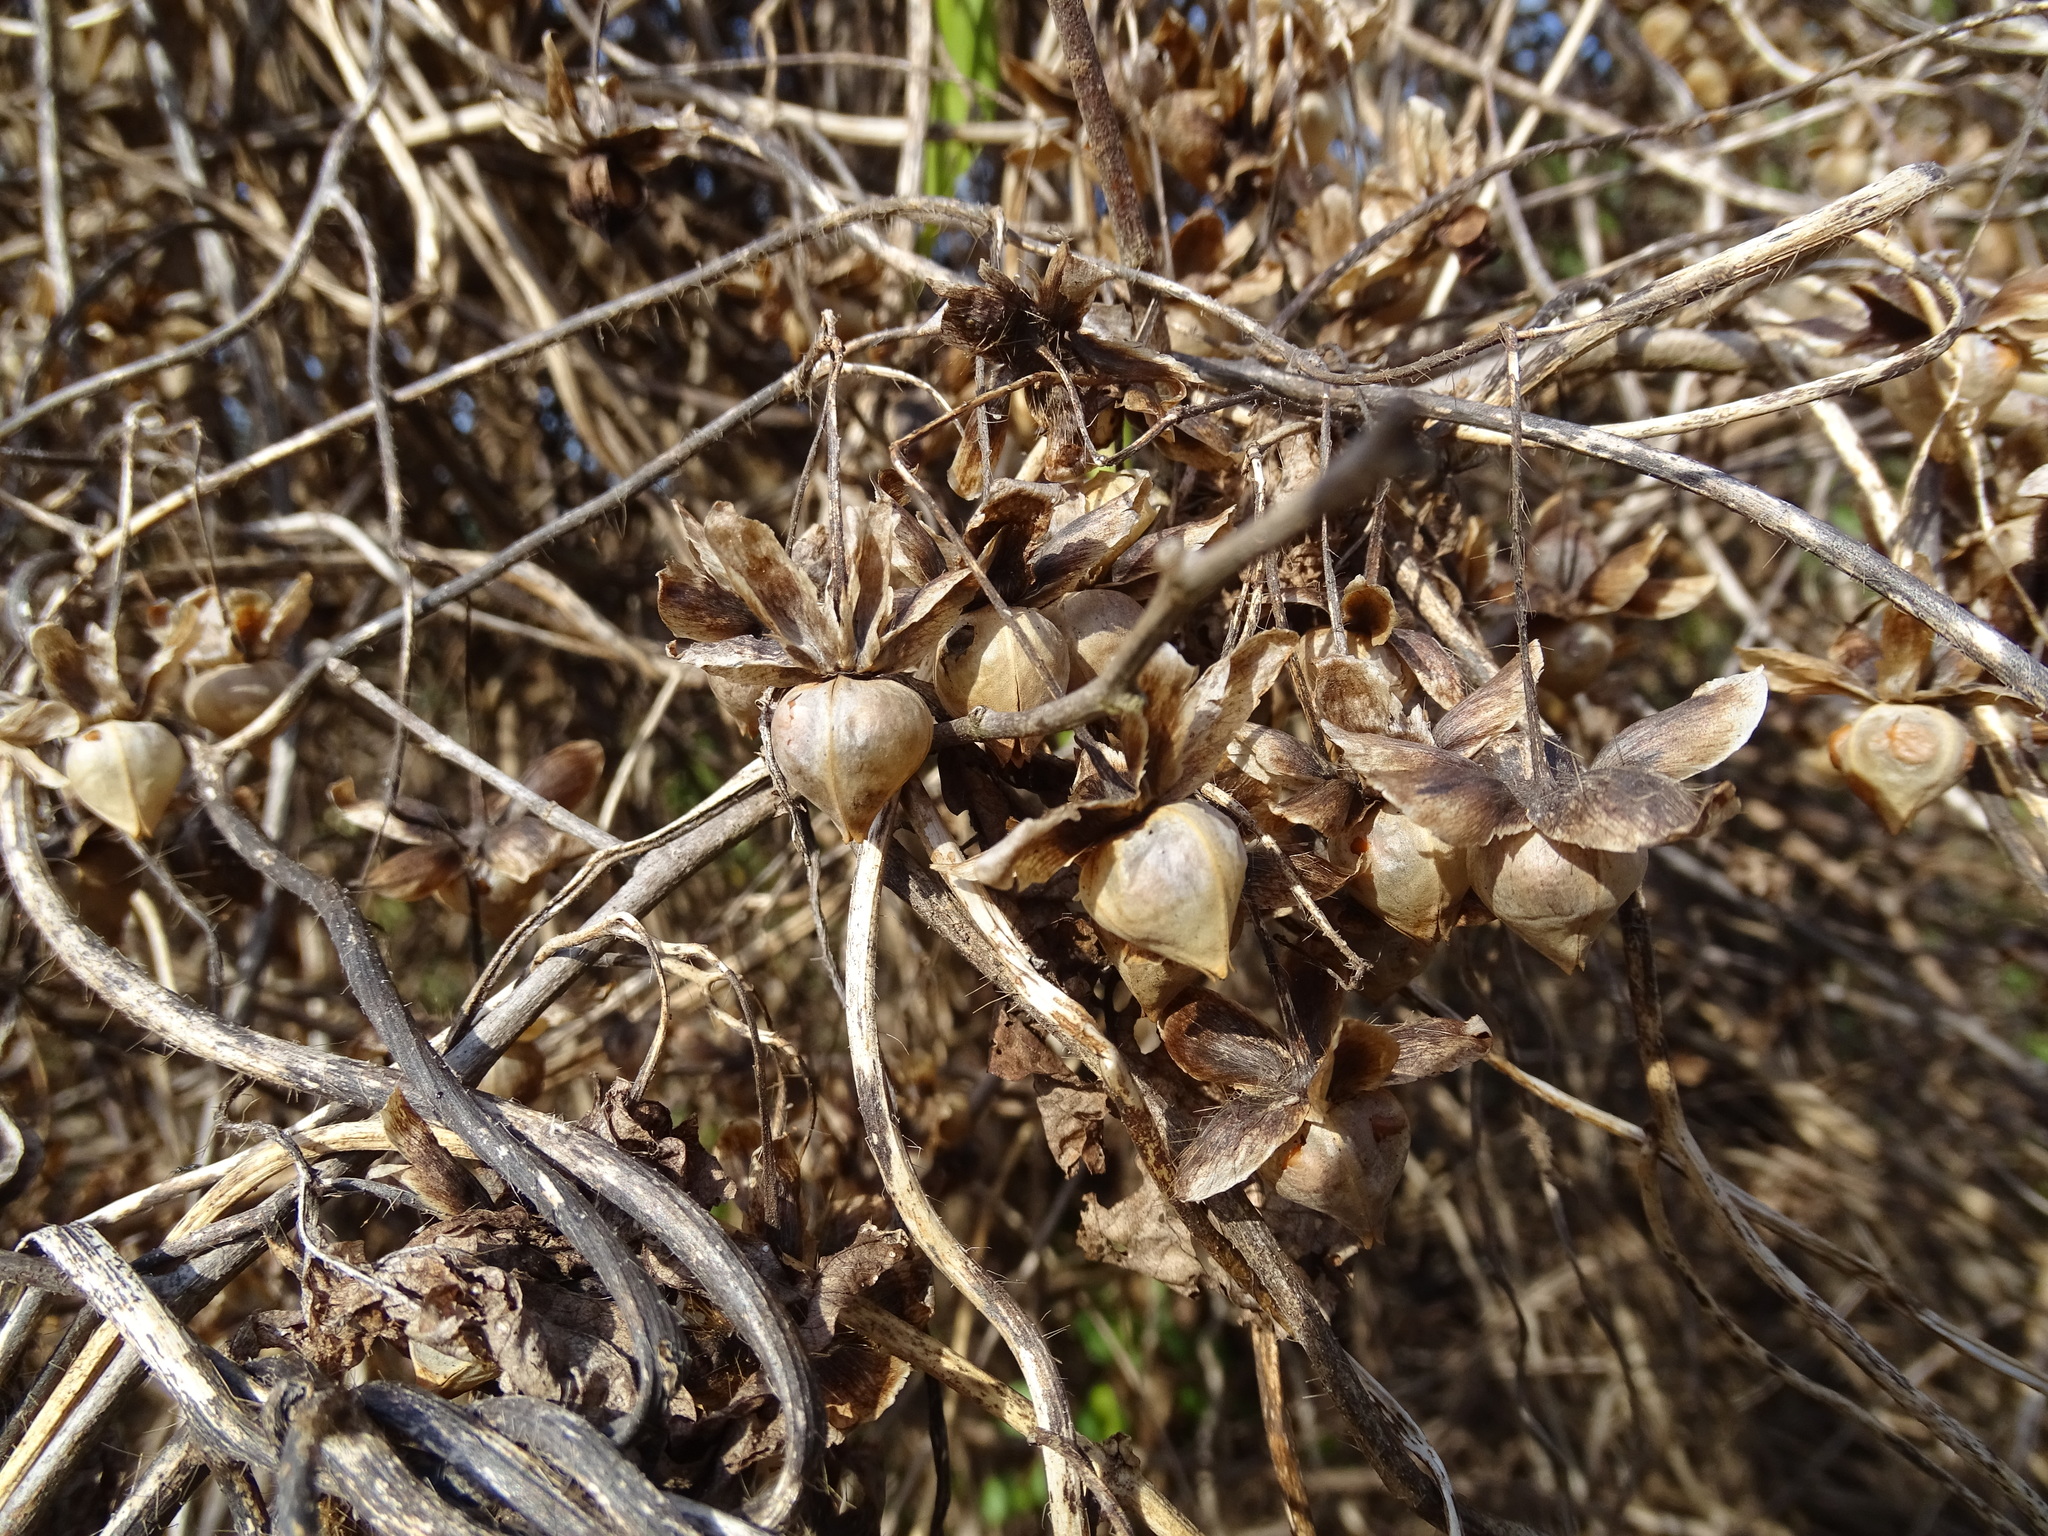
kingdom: Plantae
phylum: Tracheophyta
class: Magnoliopsida
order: Solanales
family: Convolvulaceae
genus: Distimake
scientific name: Distimake aegyptius
